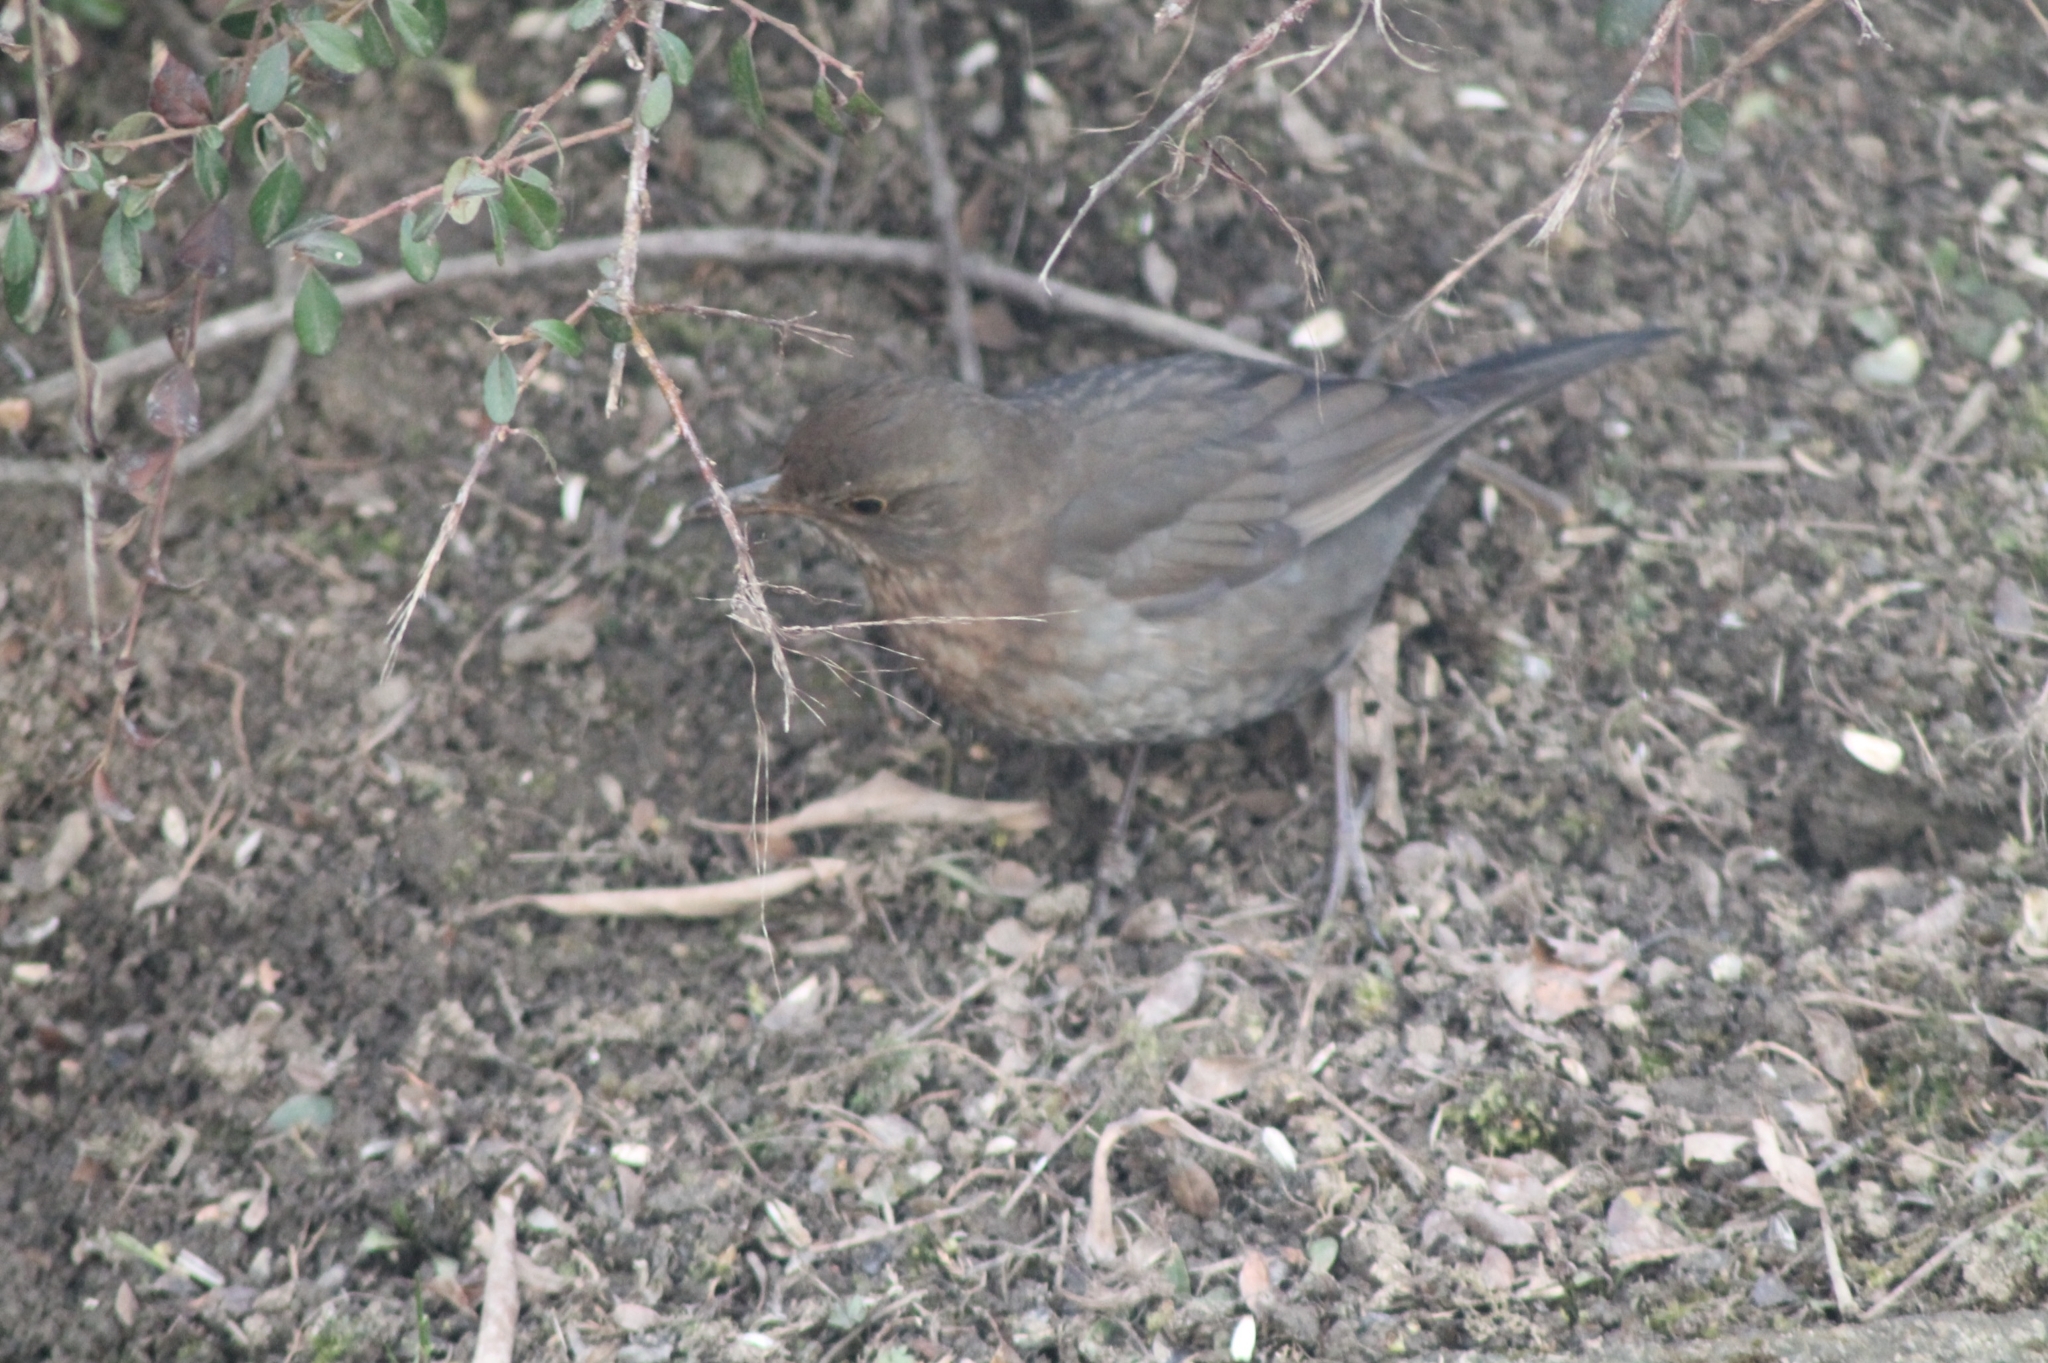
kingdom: Animalia
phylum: Chordata
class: Aves
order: Passeriformes
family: Turdidae
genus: Turdus
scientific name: Turdus merula
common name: Common blackbird
